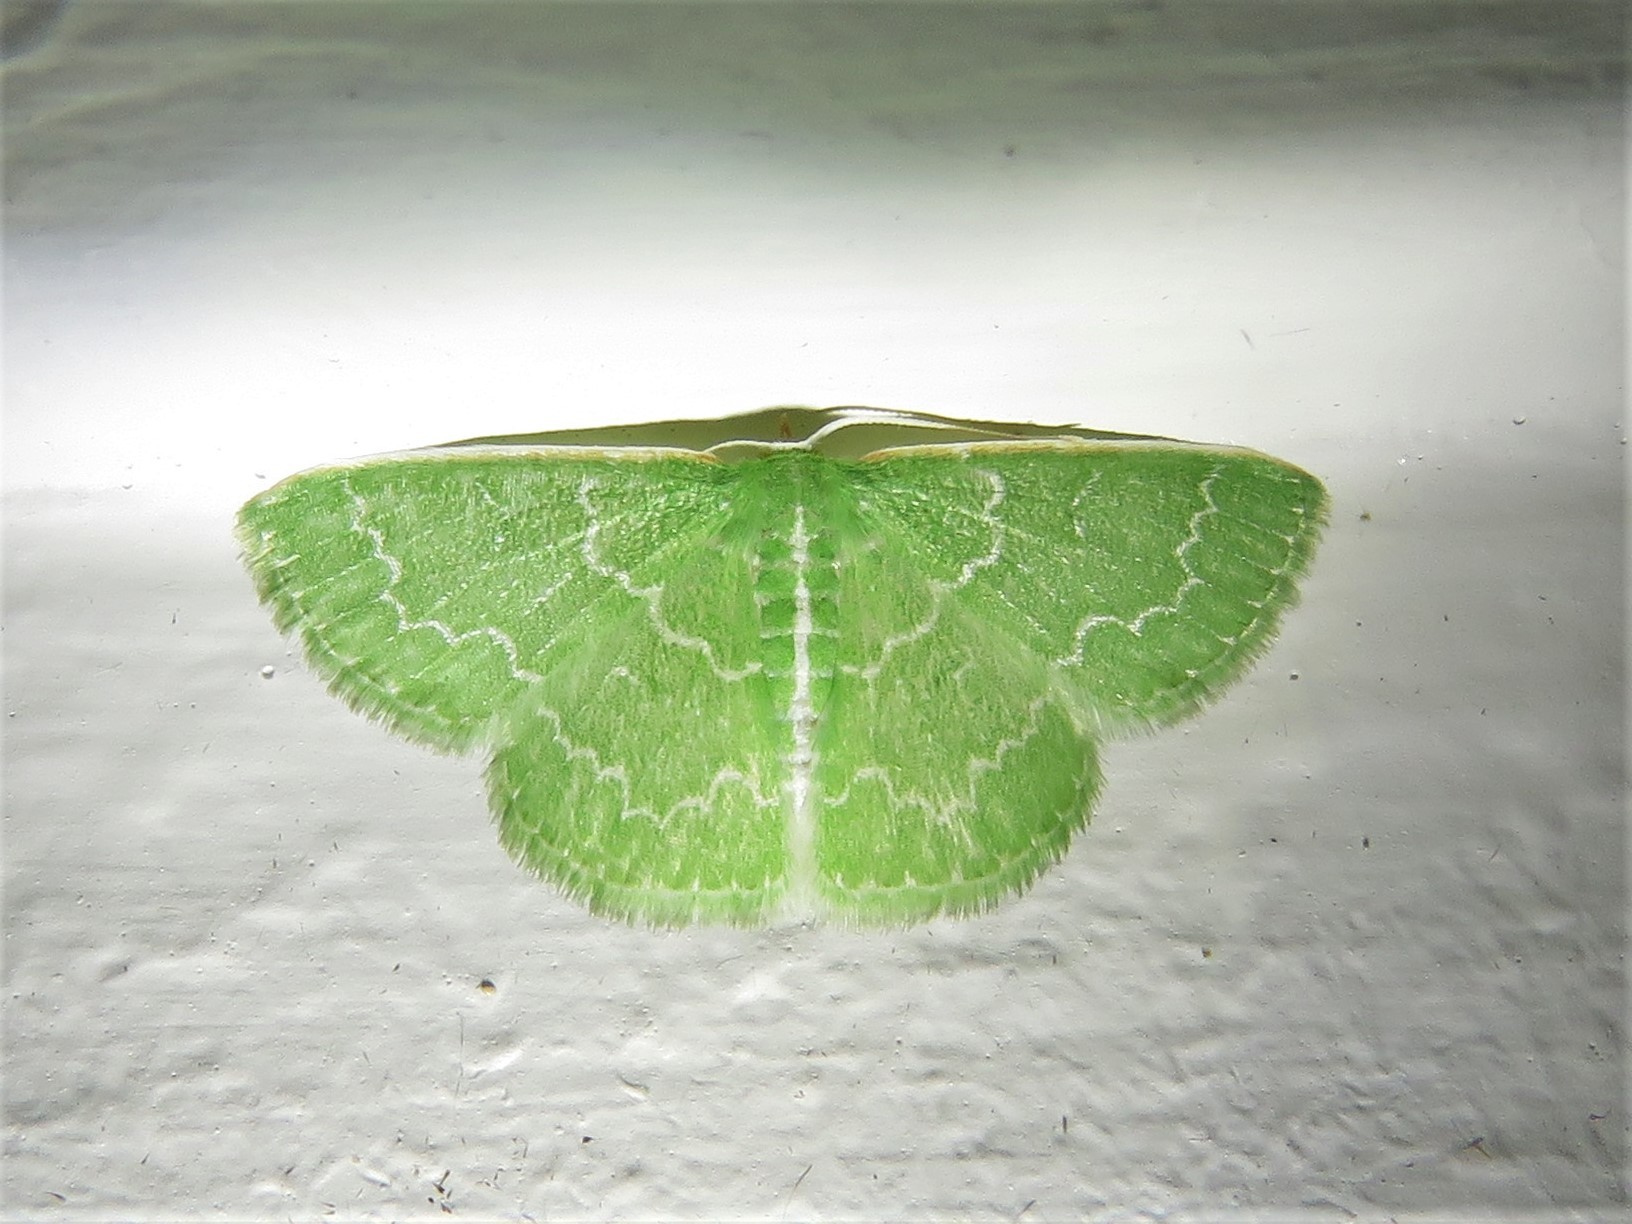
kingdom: Animalia
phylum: Arthropoda
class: Insecta
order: Lepidoptera
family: Geometridae
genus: Synchlora
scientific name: Synchlora frondaria
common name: Southern emerald
